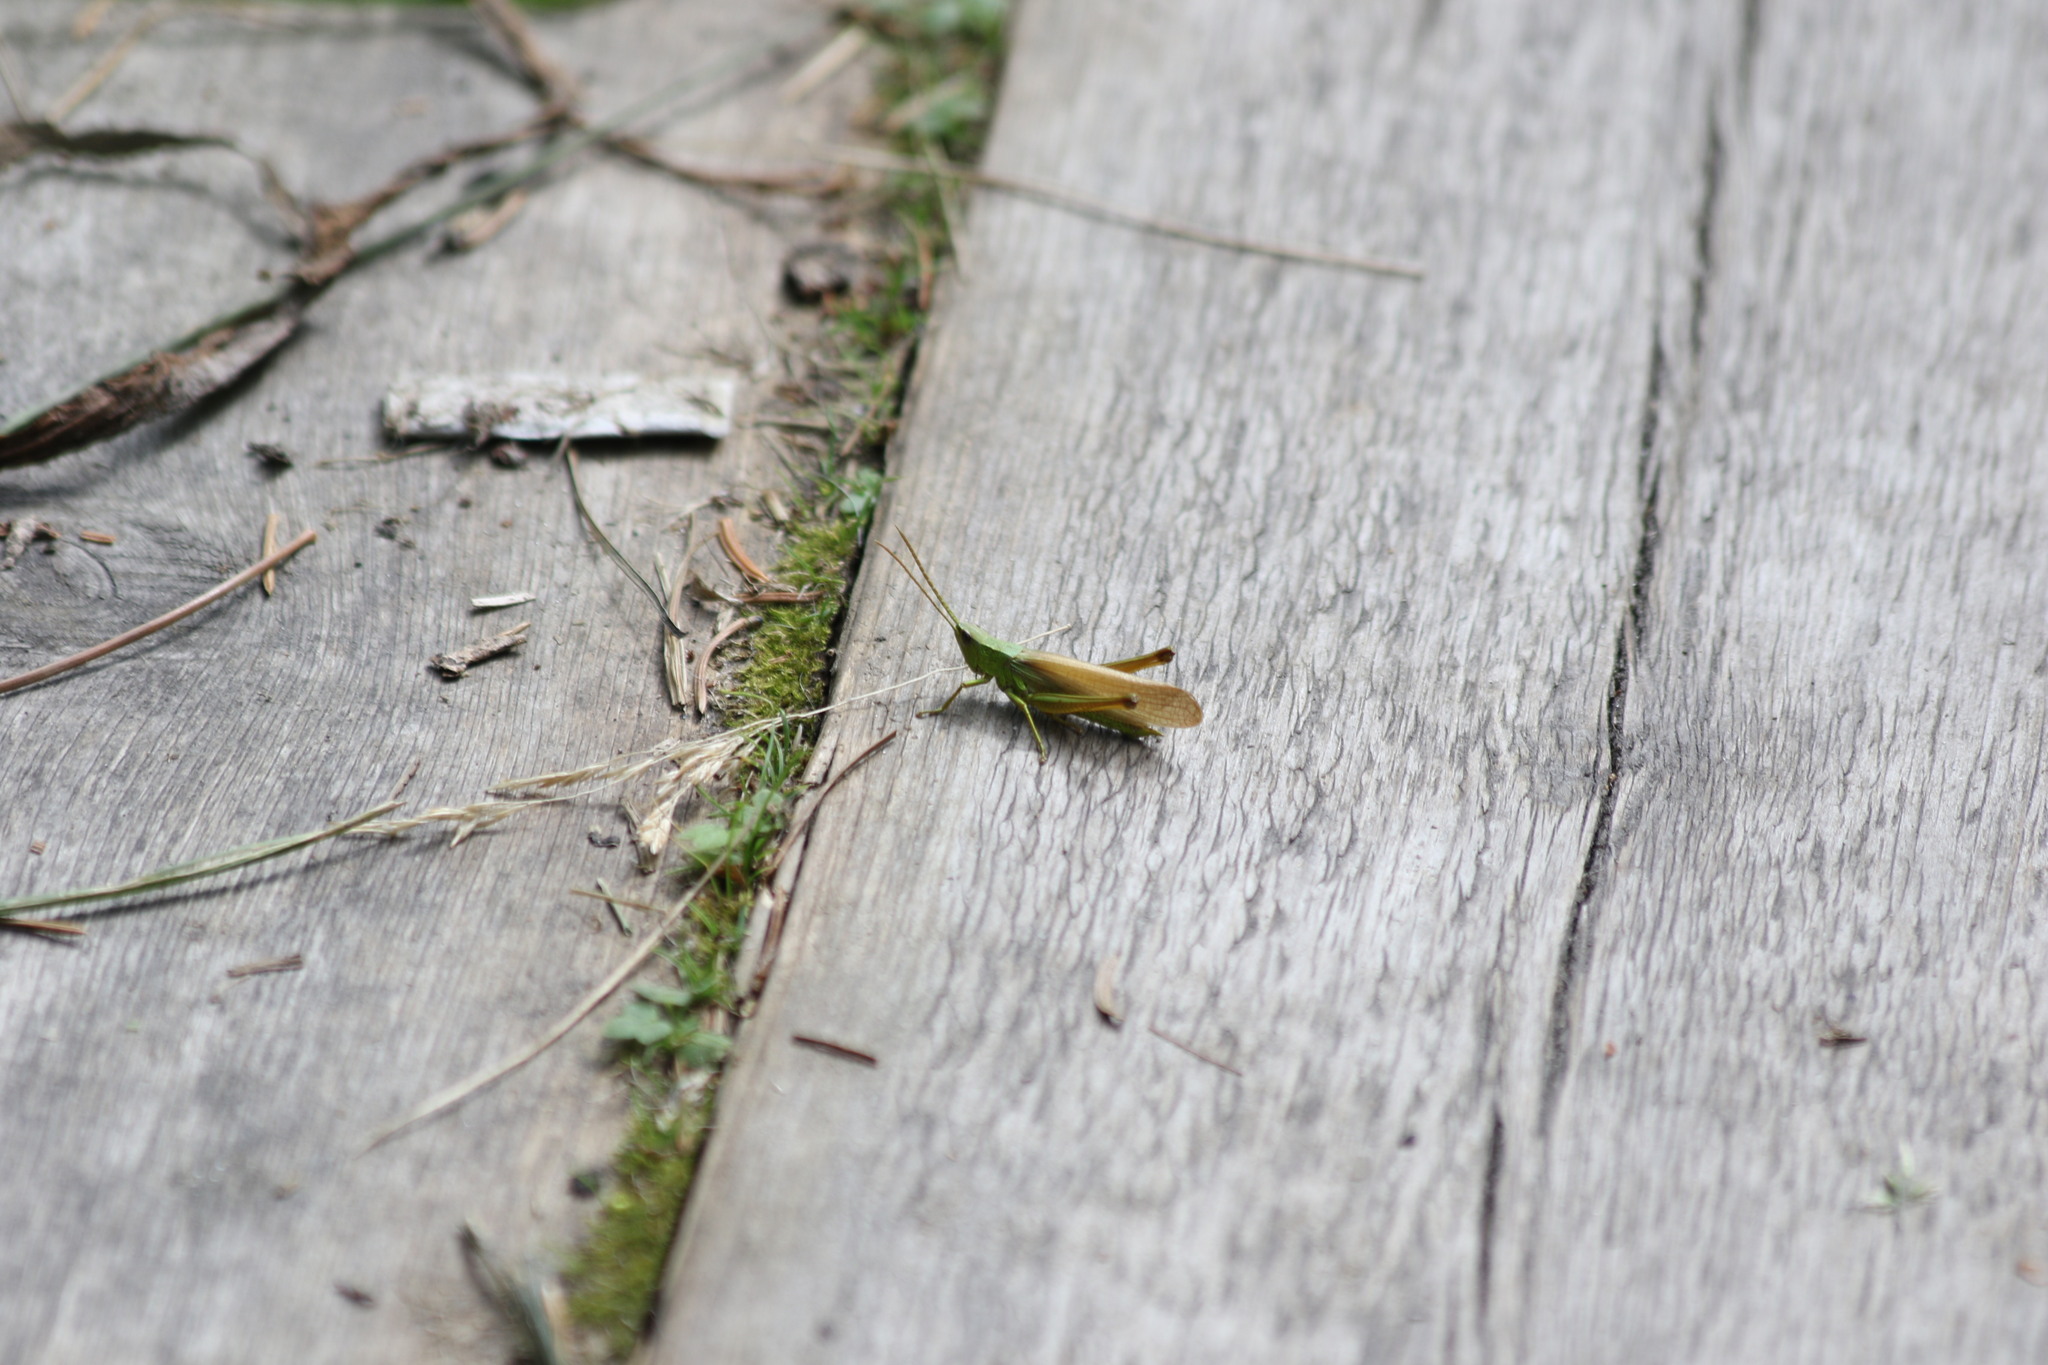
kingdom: Animalia
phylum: Arthropoda
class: Insecta
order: Orthoptera
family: Acrididae
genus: Chrysochraon
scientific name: Chrysochraon dispar
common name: Large gold grasshopper
